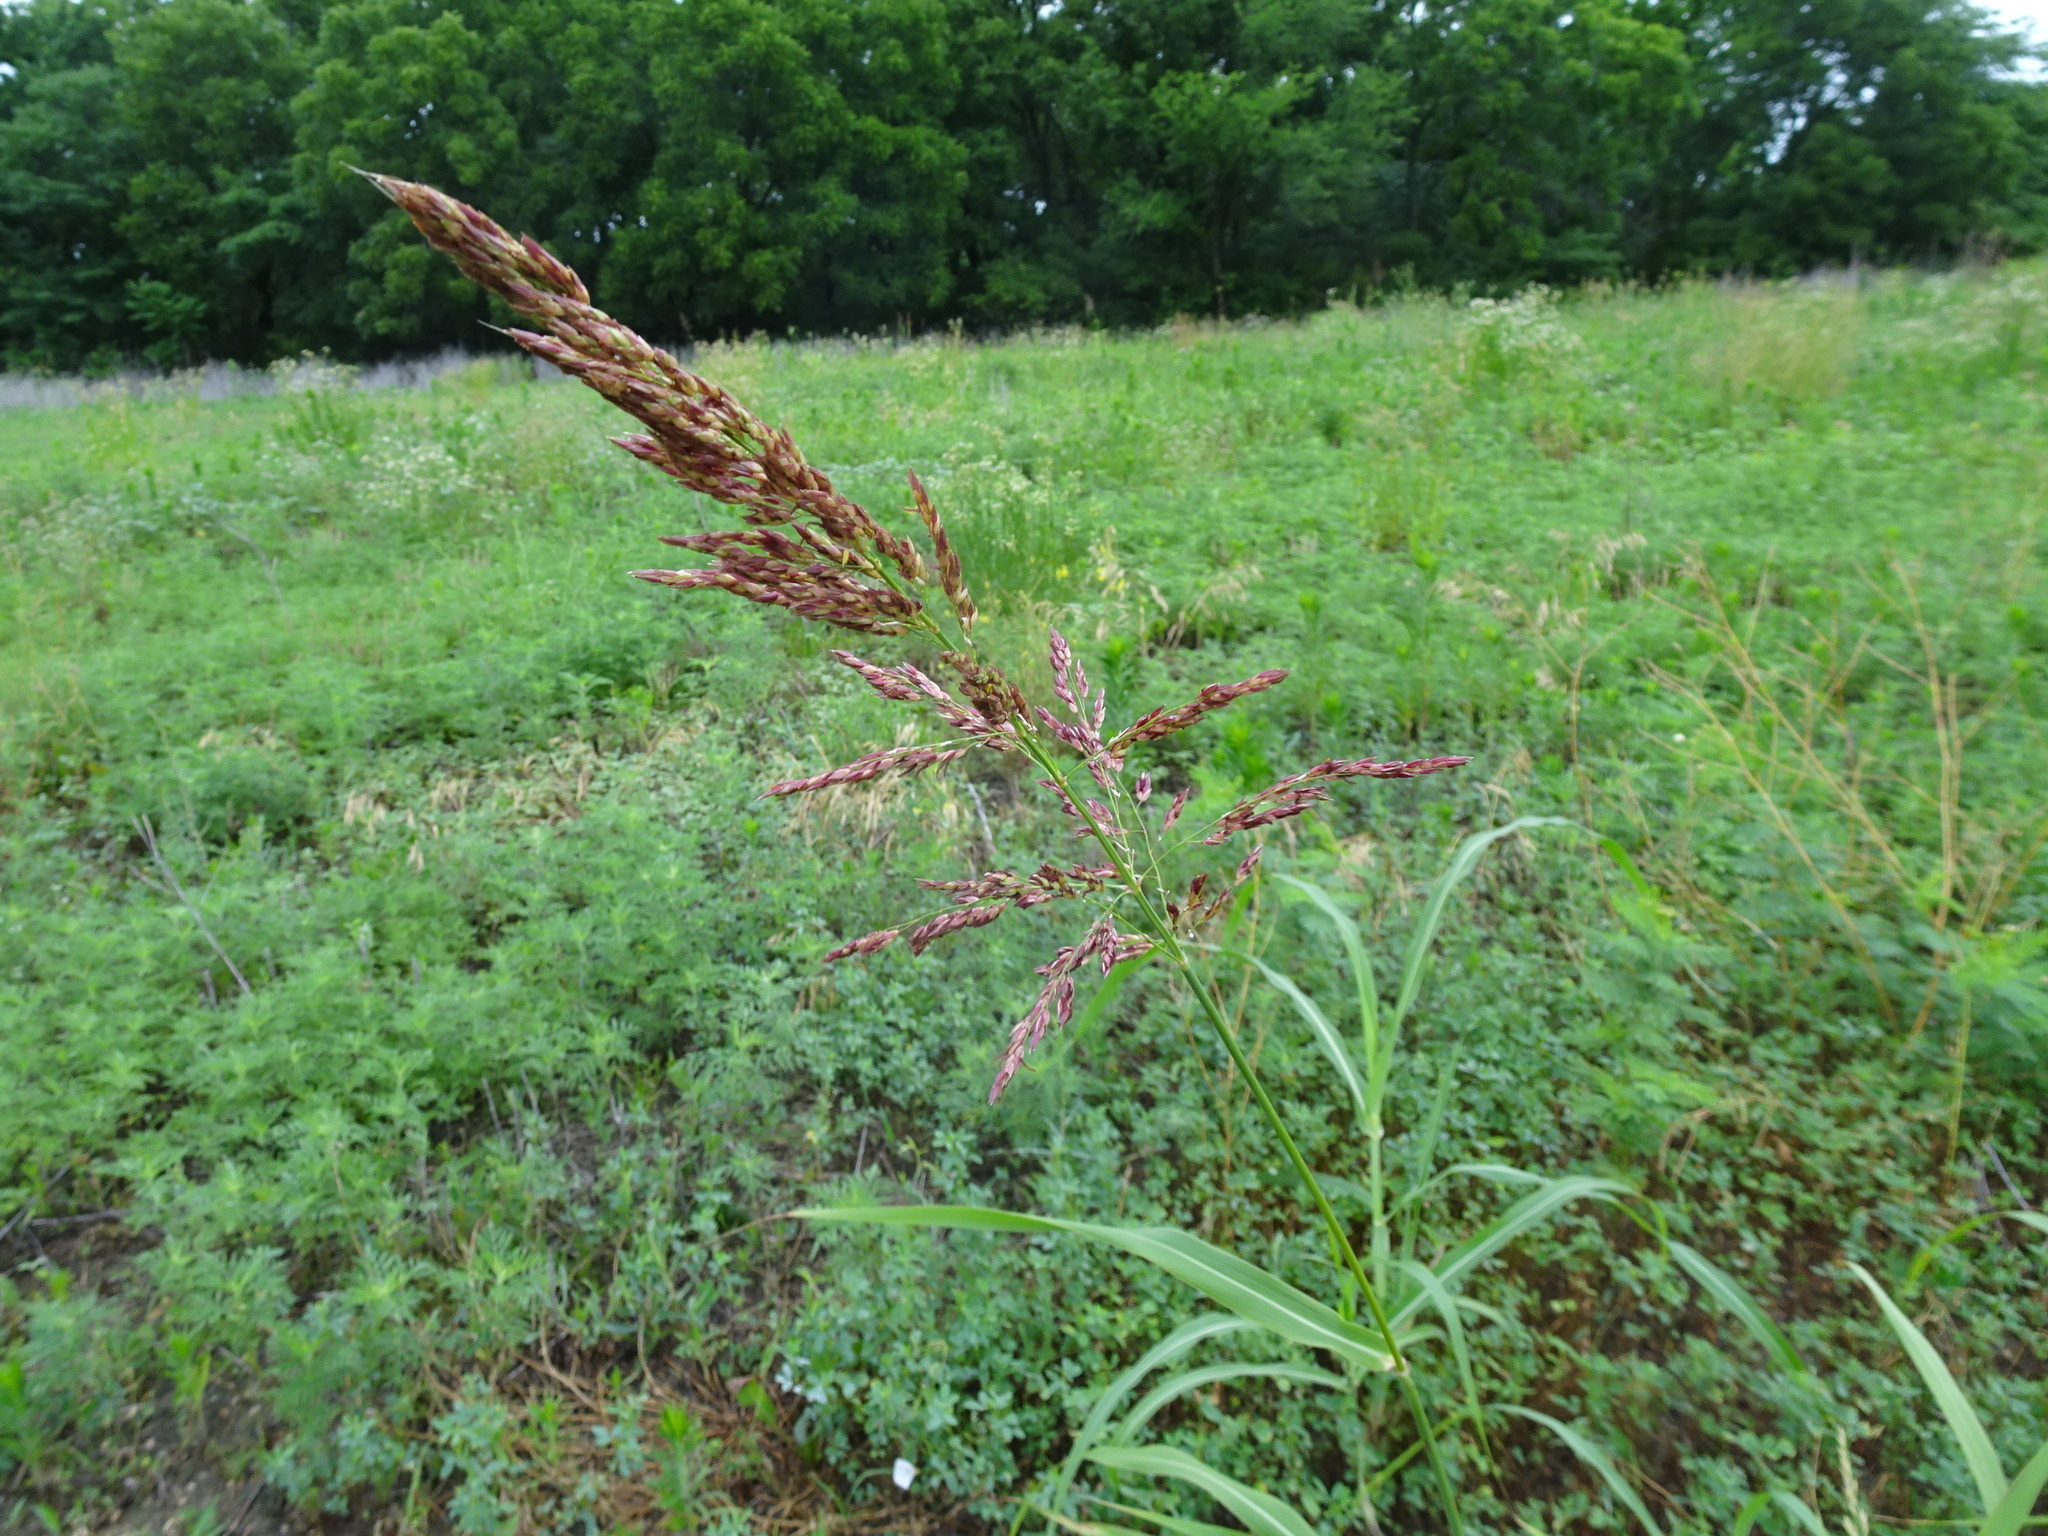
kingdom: Plantae
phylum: Tracheophyta
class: Liliopsida
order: Poales
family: Poaceae
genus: Sorghum
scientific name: Sorghum halepense
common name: Johnson-grass
